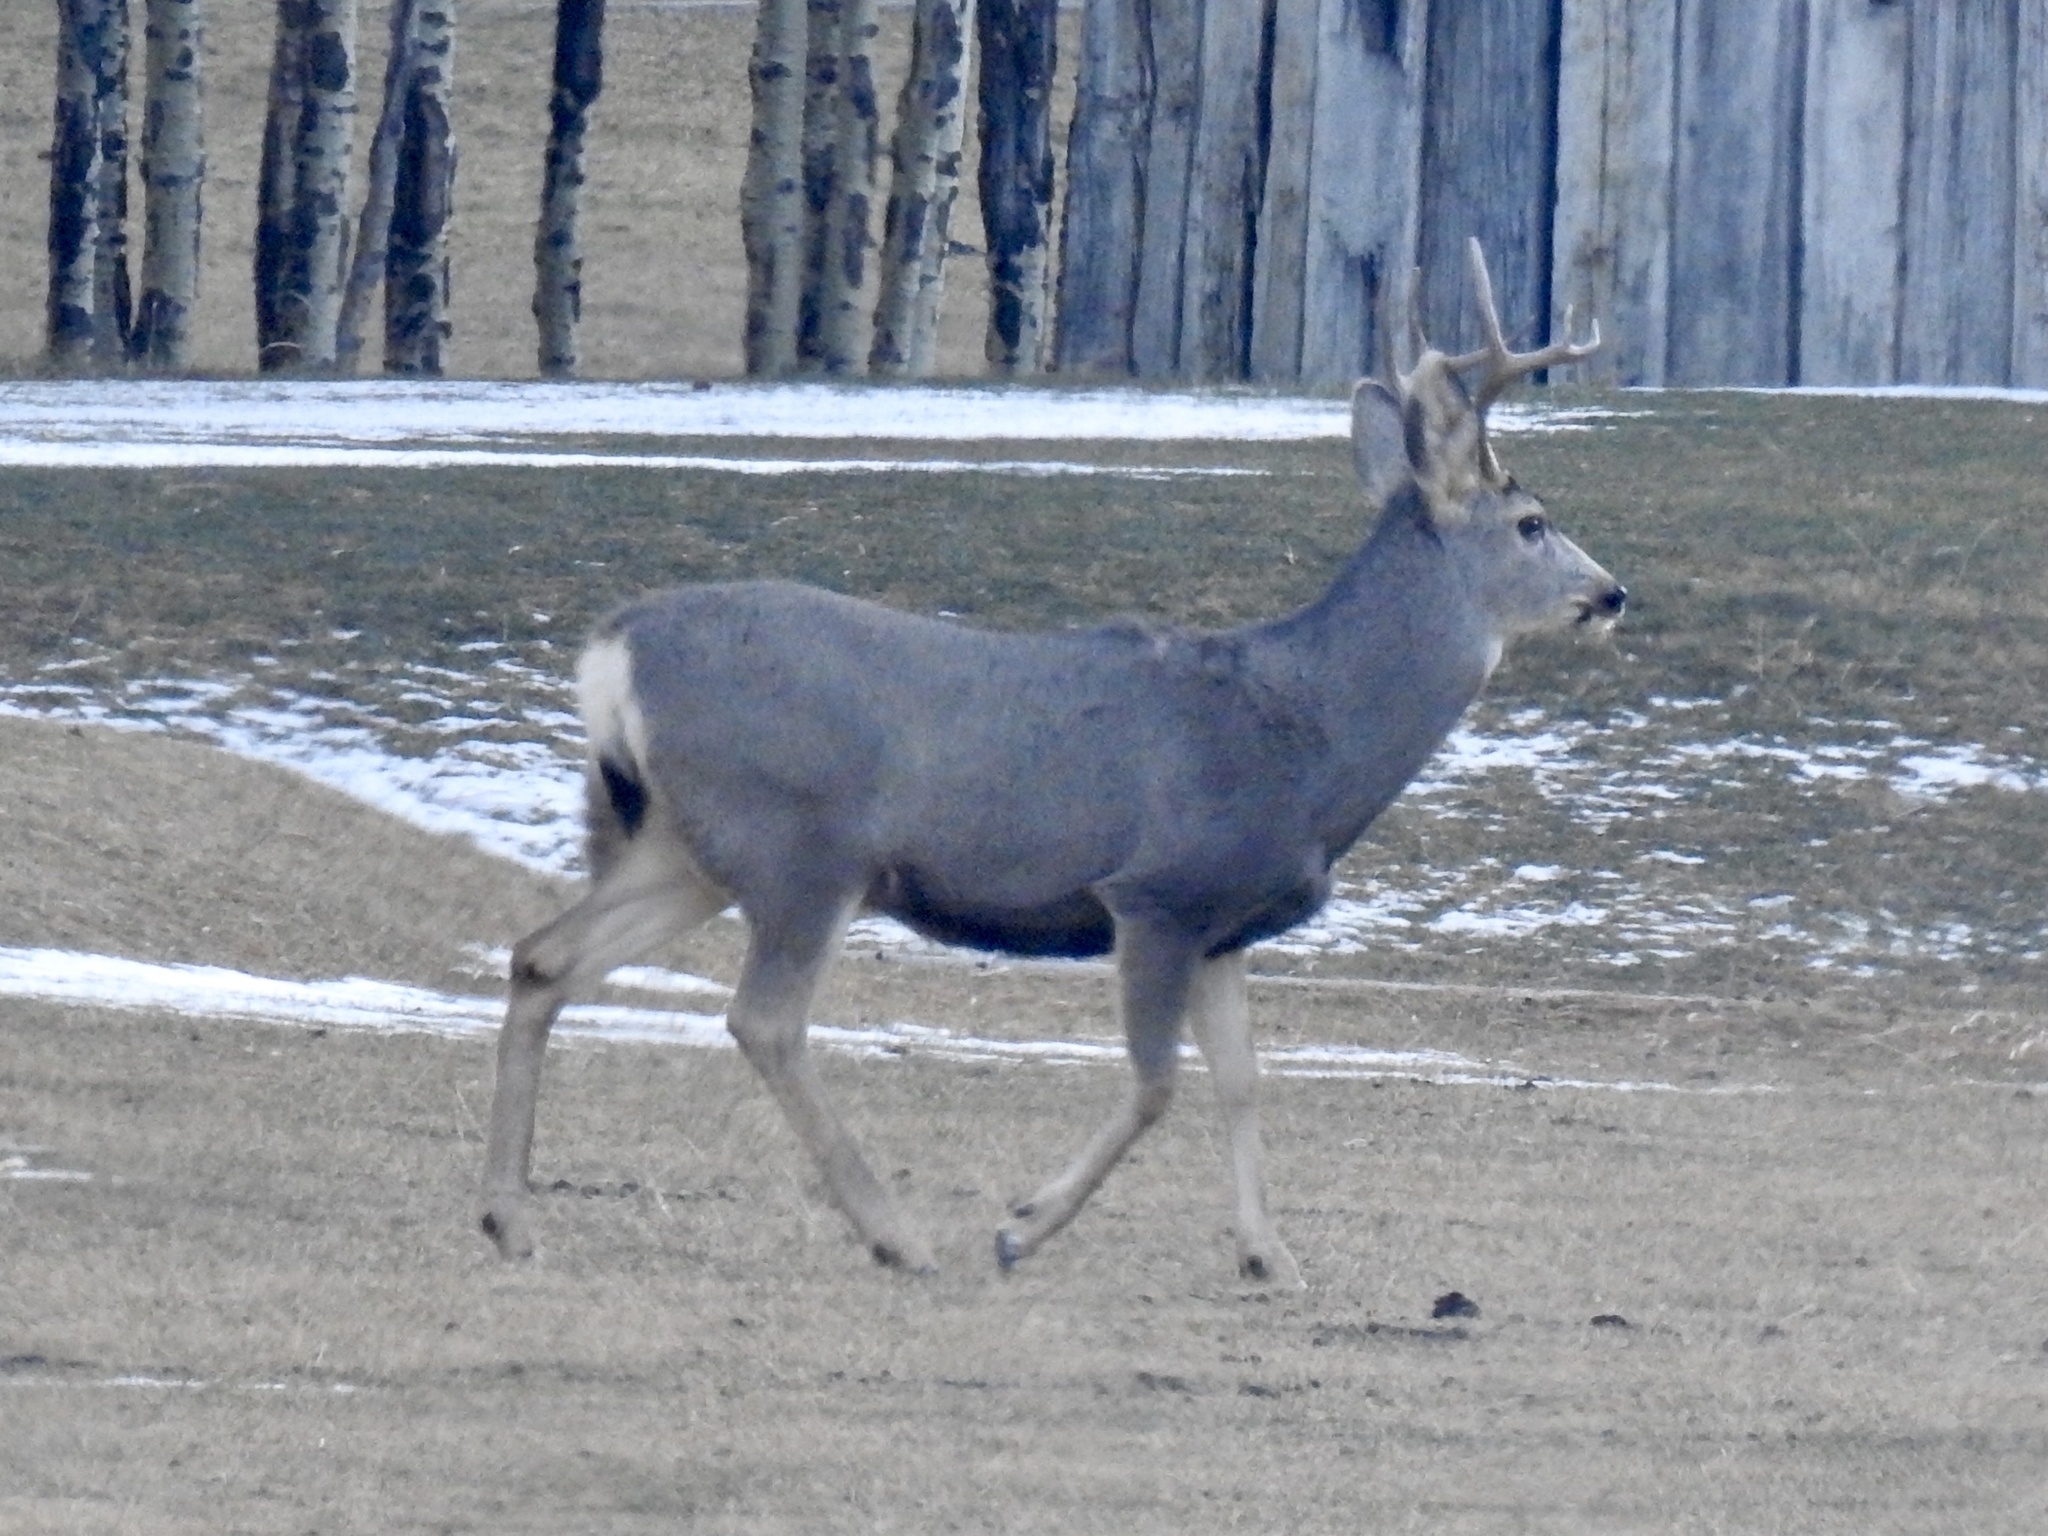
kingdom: Animalia
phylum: Chordata
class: Mammalia
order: Artiodactyla
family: Cervidae
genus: Odocoileus
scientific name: Odocoileus hemionus
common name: Mule deer
